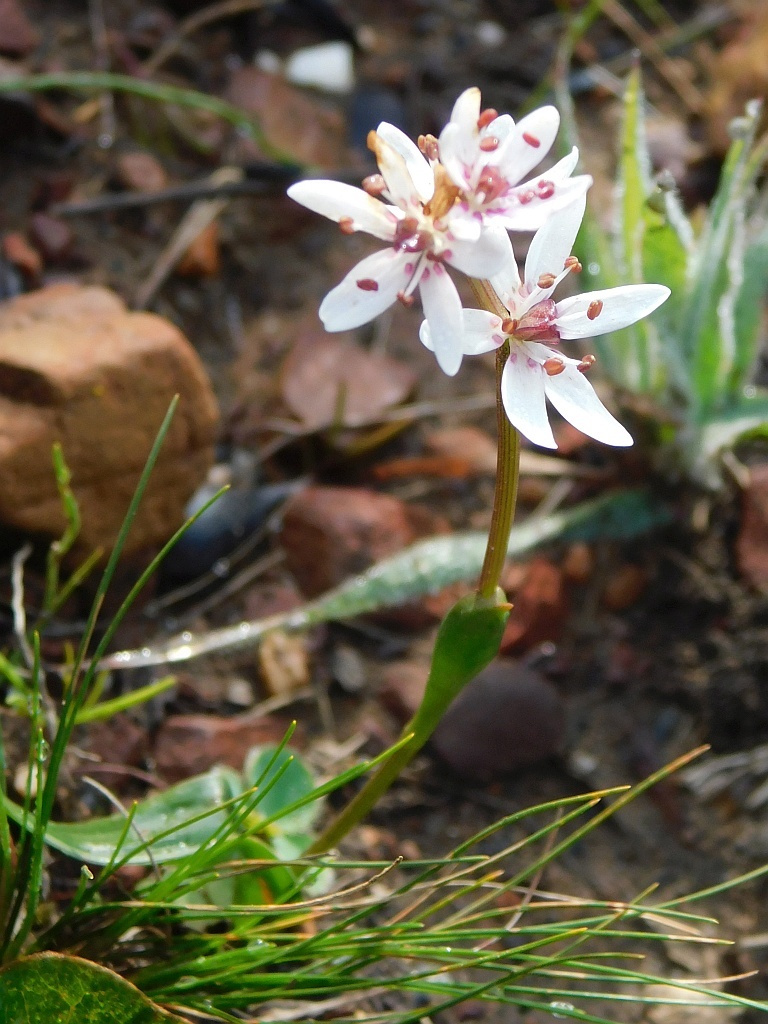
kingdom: Plantae
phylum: Tracheophyta
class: Liliopsida
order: Liliales
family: Colchicaceae
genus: Wurmbea
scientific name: Wurmbea punctata
